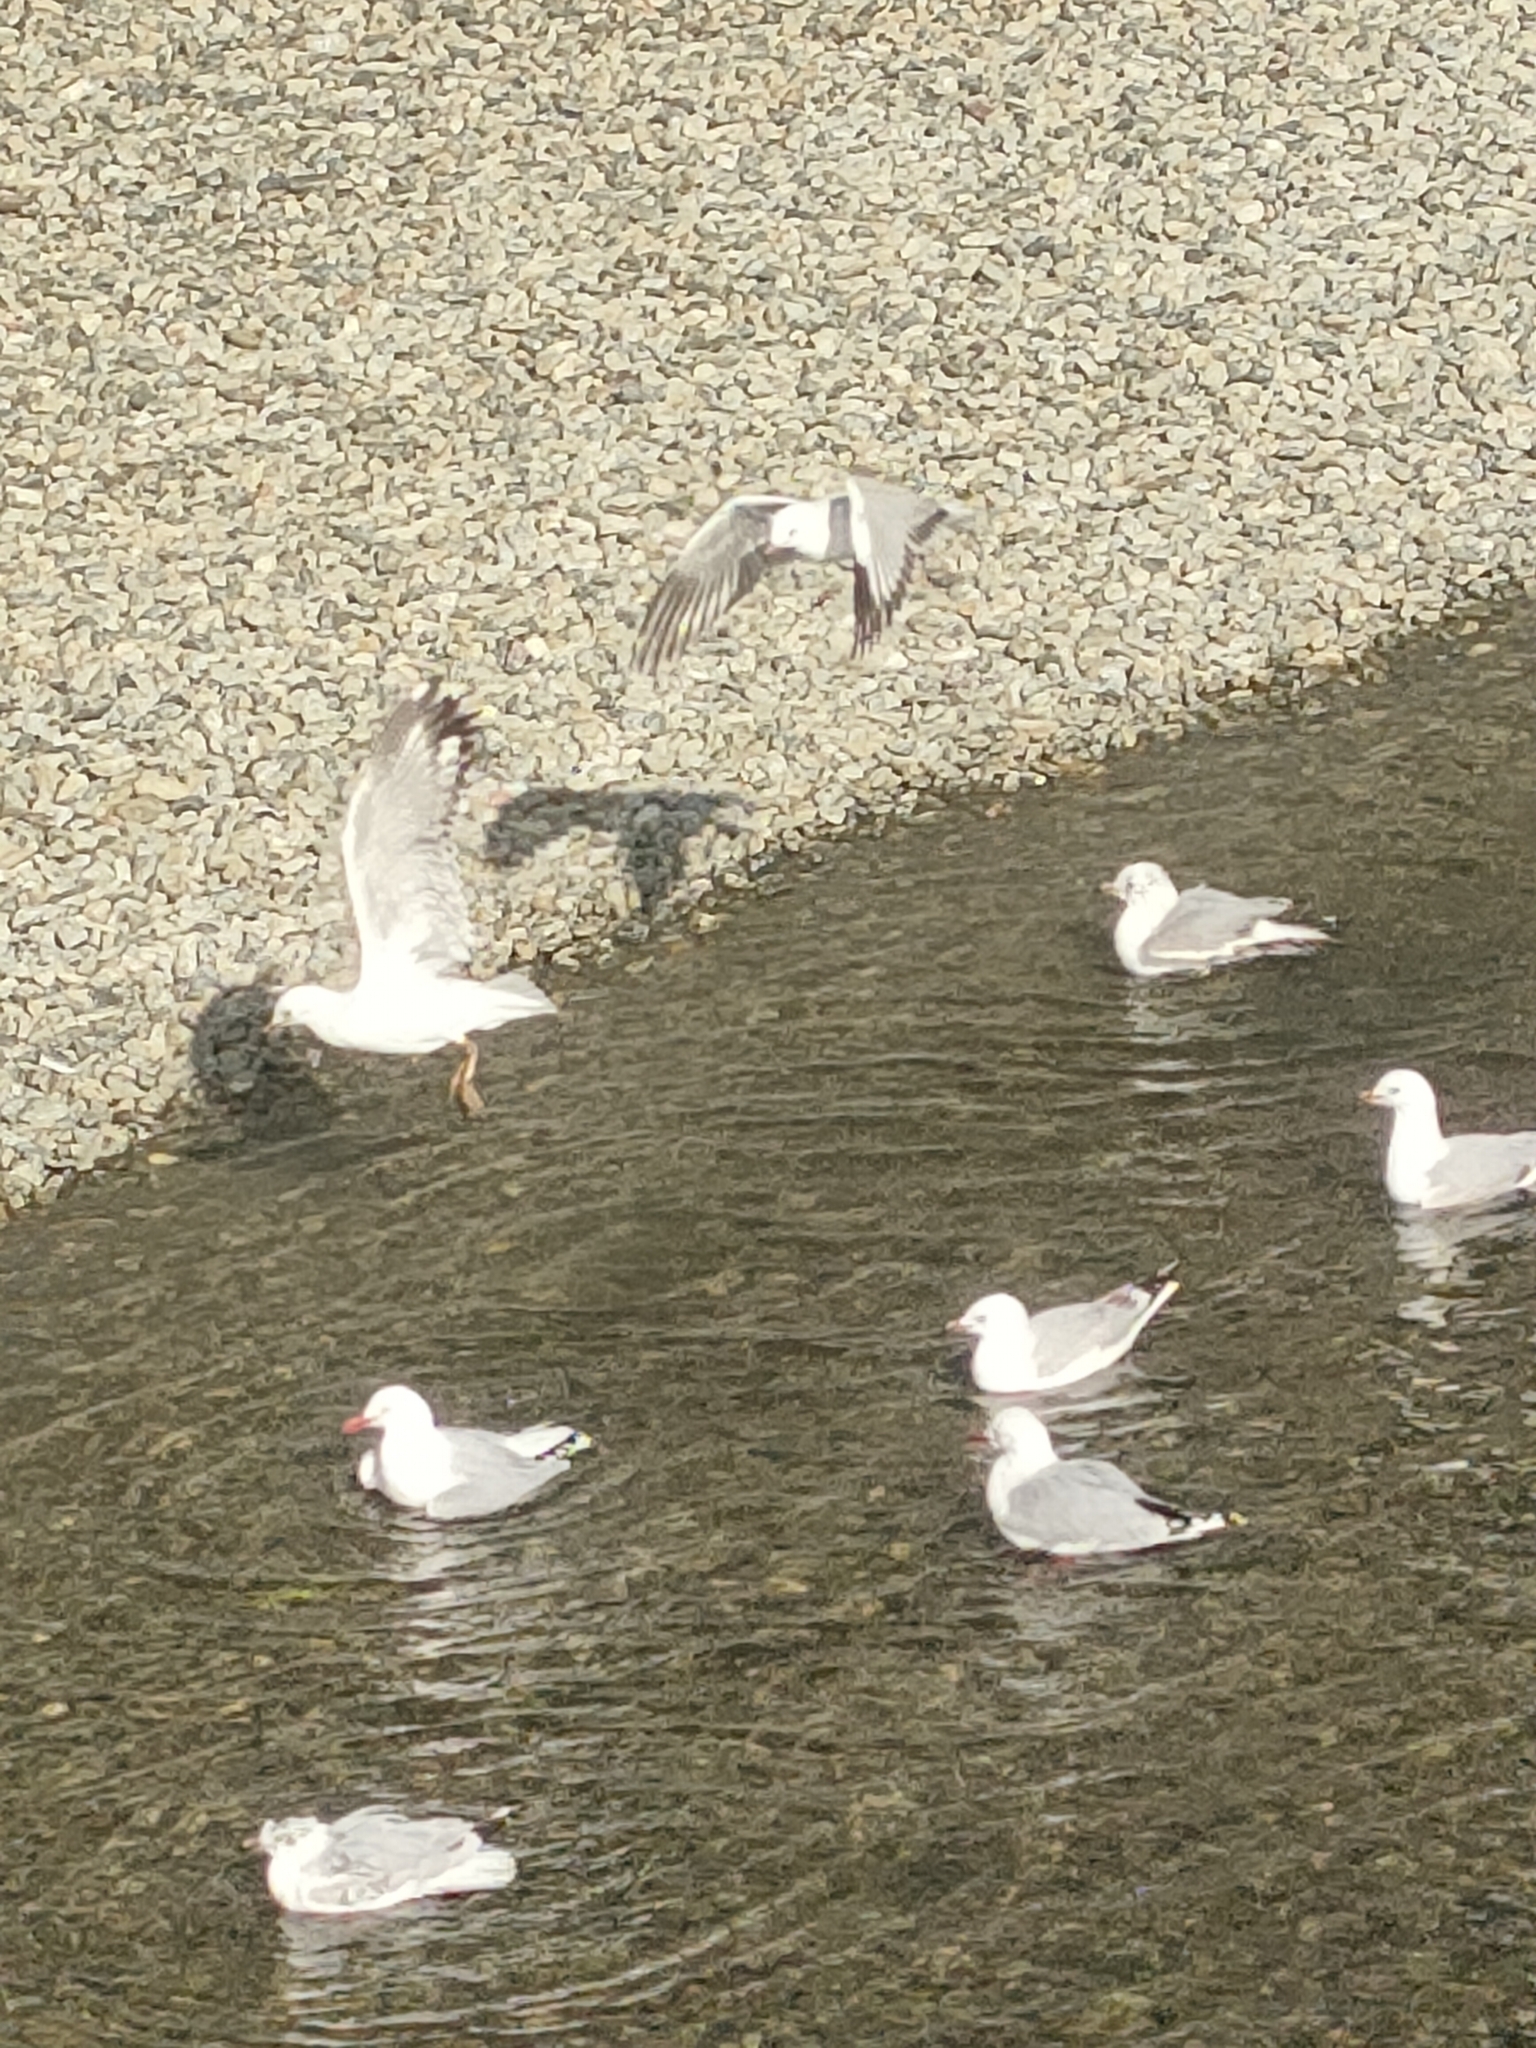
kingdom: Animalia
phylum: Chordata
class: Aves
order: Charadriiformes
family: Laridae
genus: Chroicocephalus
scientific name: Chroicocephalus novaehollandiae
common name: Silver gull
